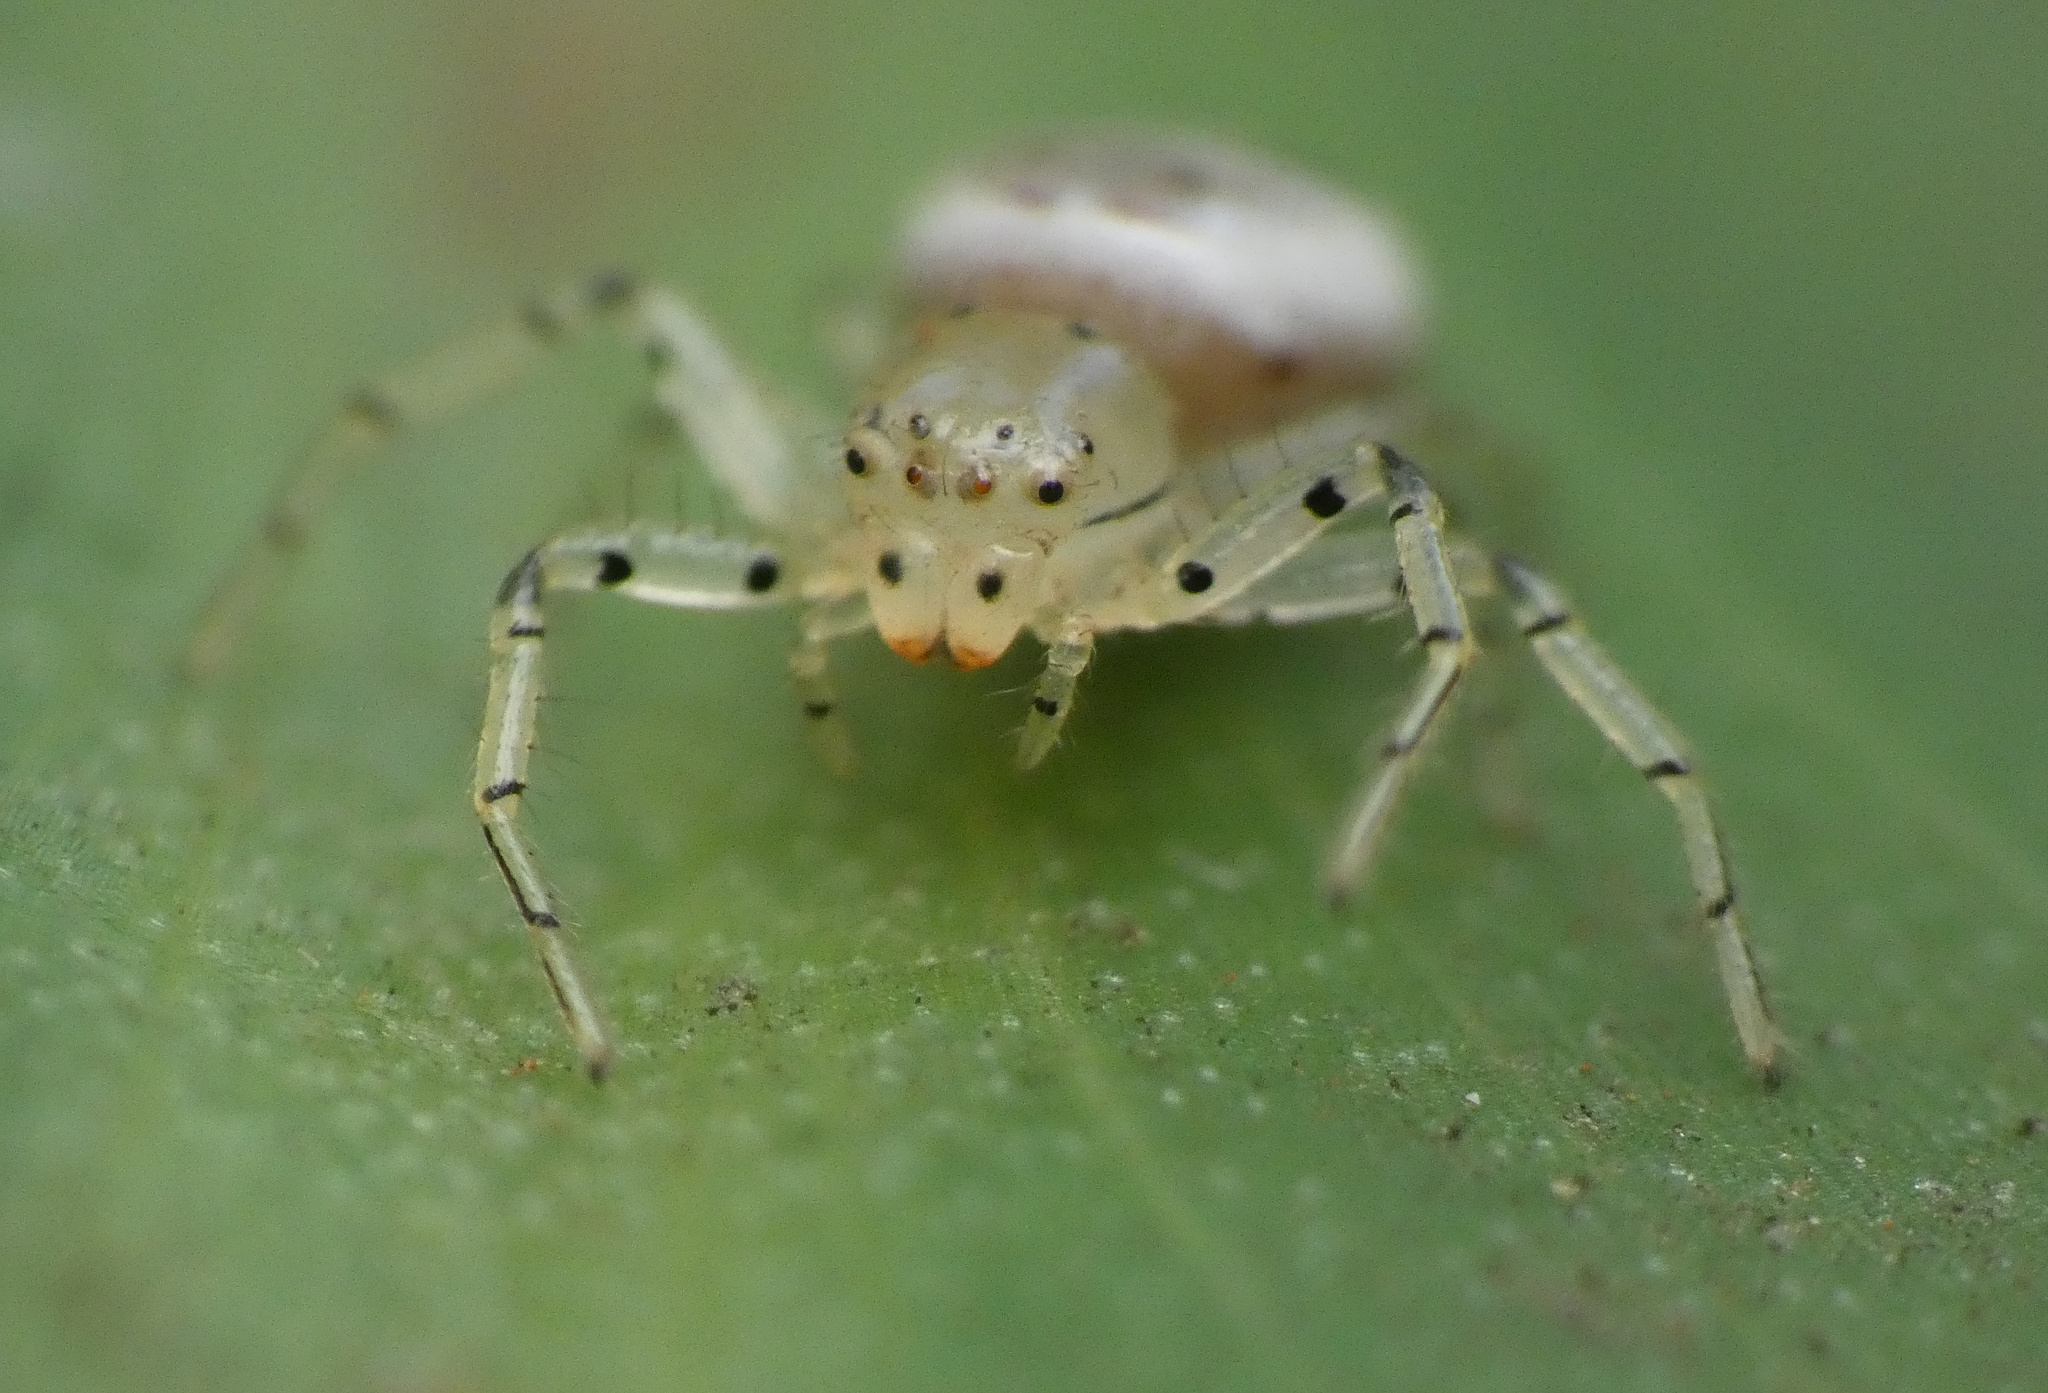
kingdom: Animalia
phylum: Arthropoda
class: Arachnida
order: Araneae
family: Thomisidae
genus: Firmicus
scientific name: Firmicus bragantinus
